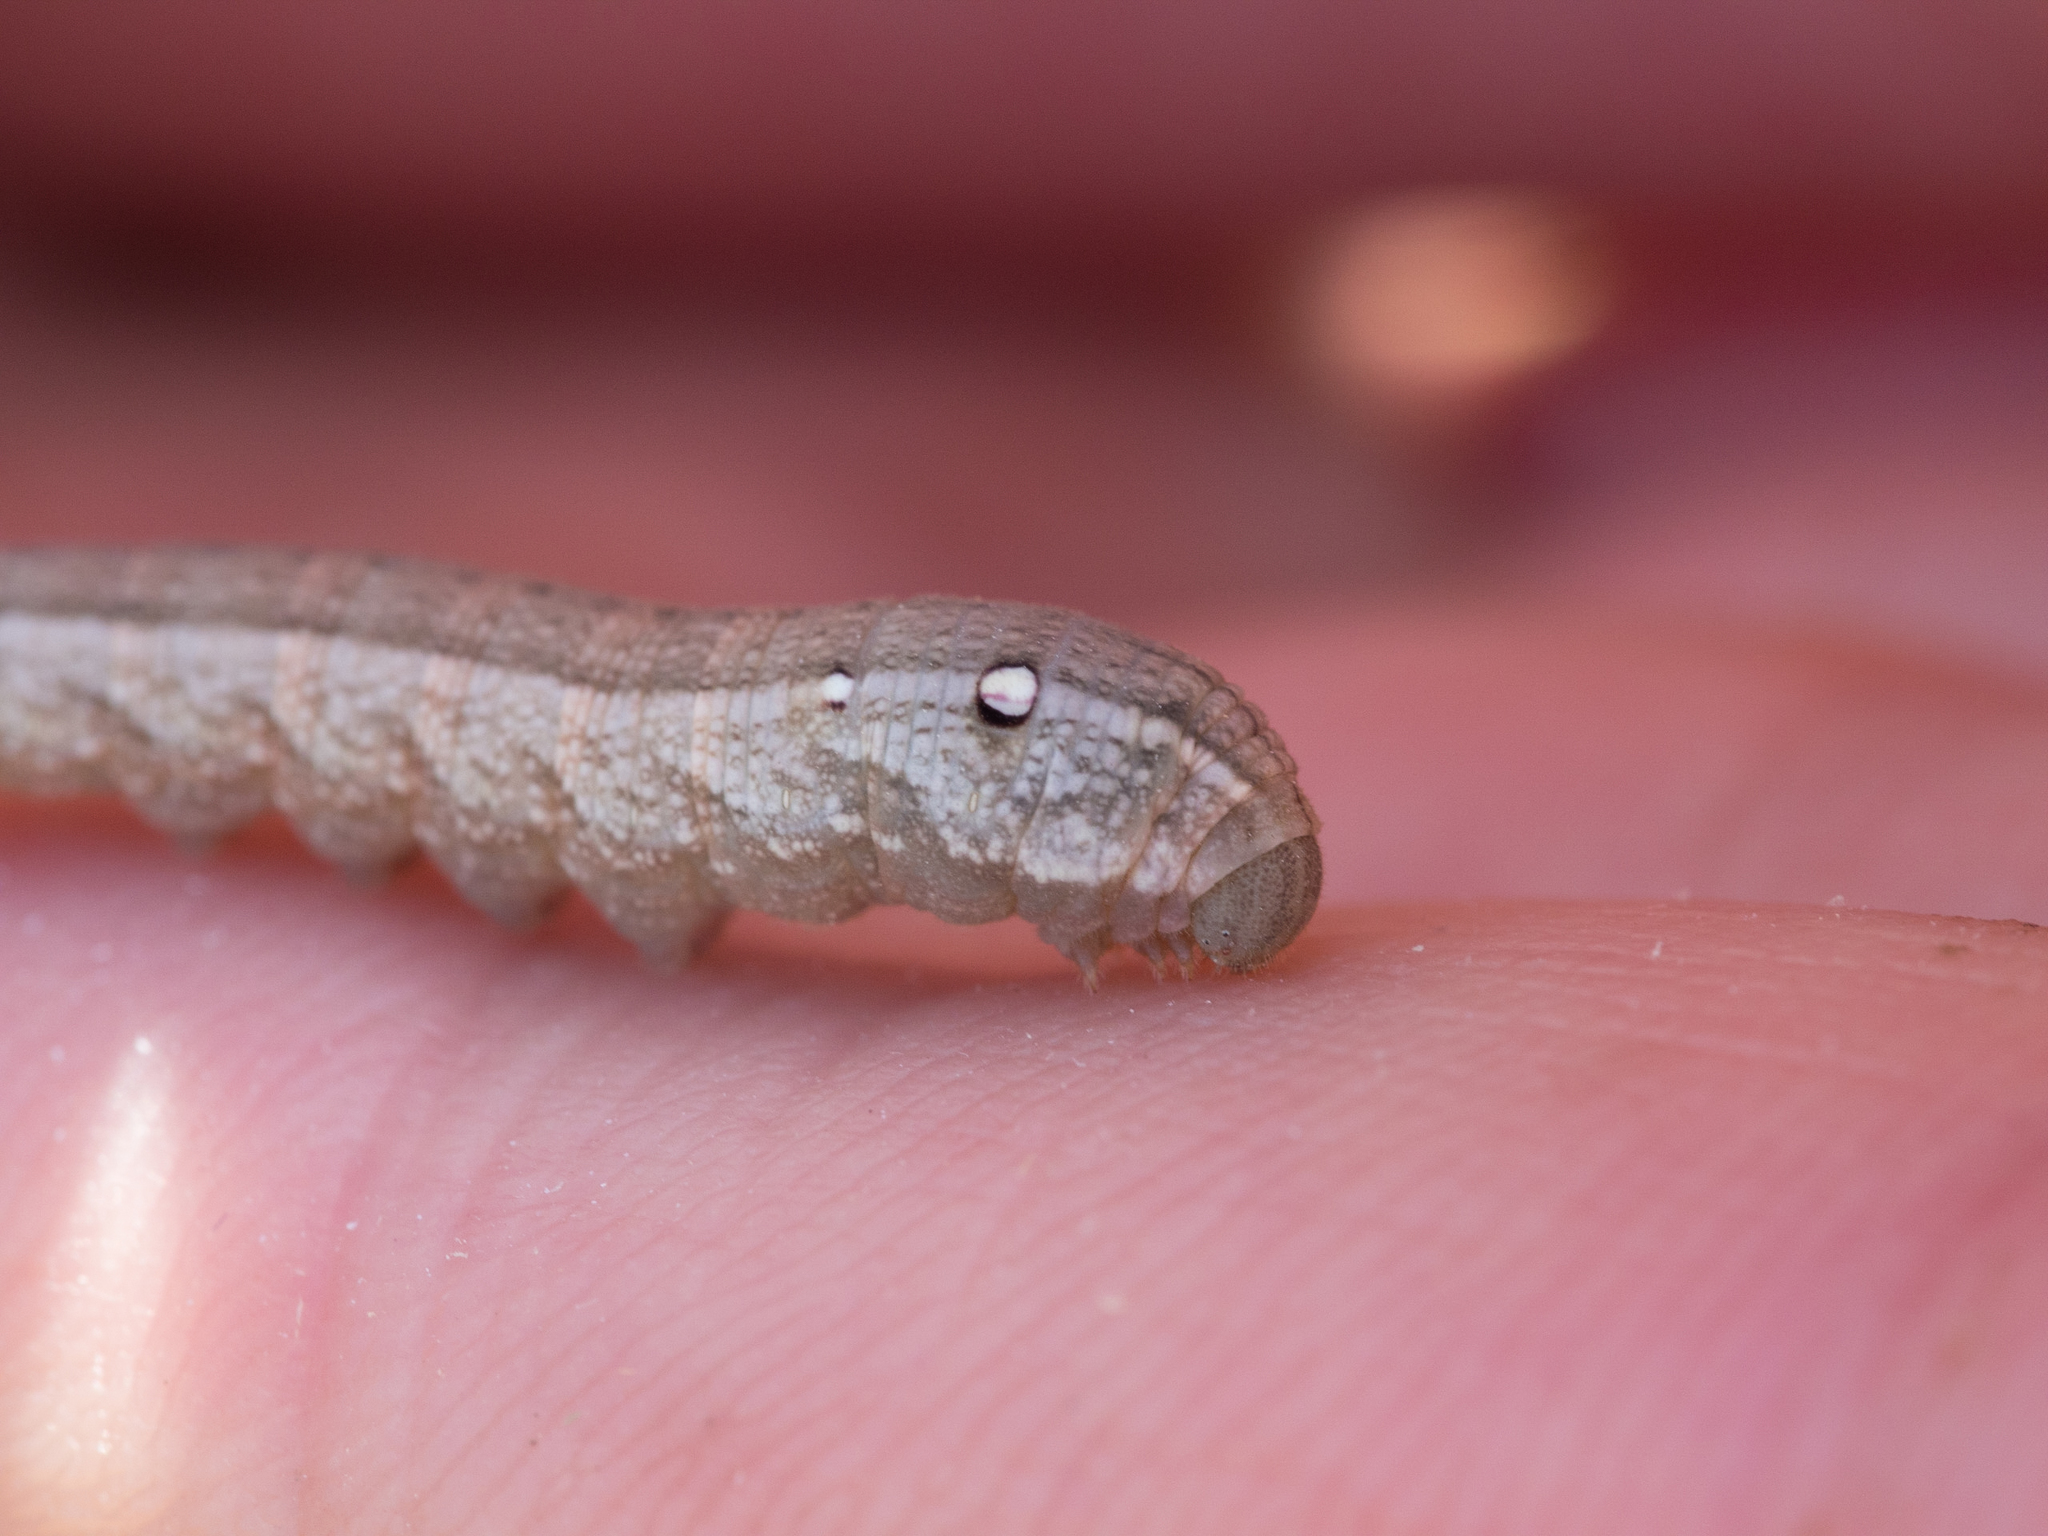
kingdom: Animalia
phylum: Arthropoda
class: Insecta
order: Lepidoptera
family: Sphingidae
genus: Deilephila
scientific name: Deilephila porcellus
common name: Small elephant hawk-moth
